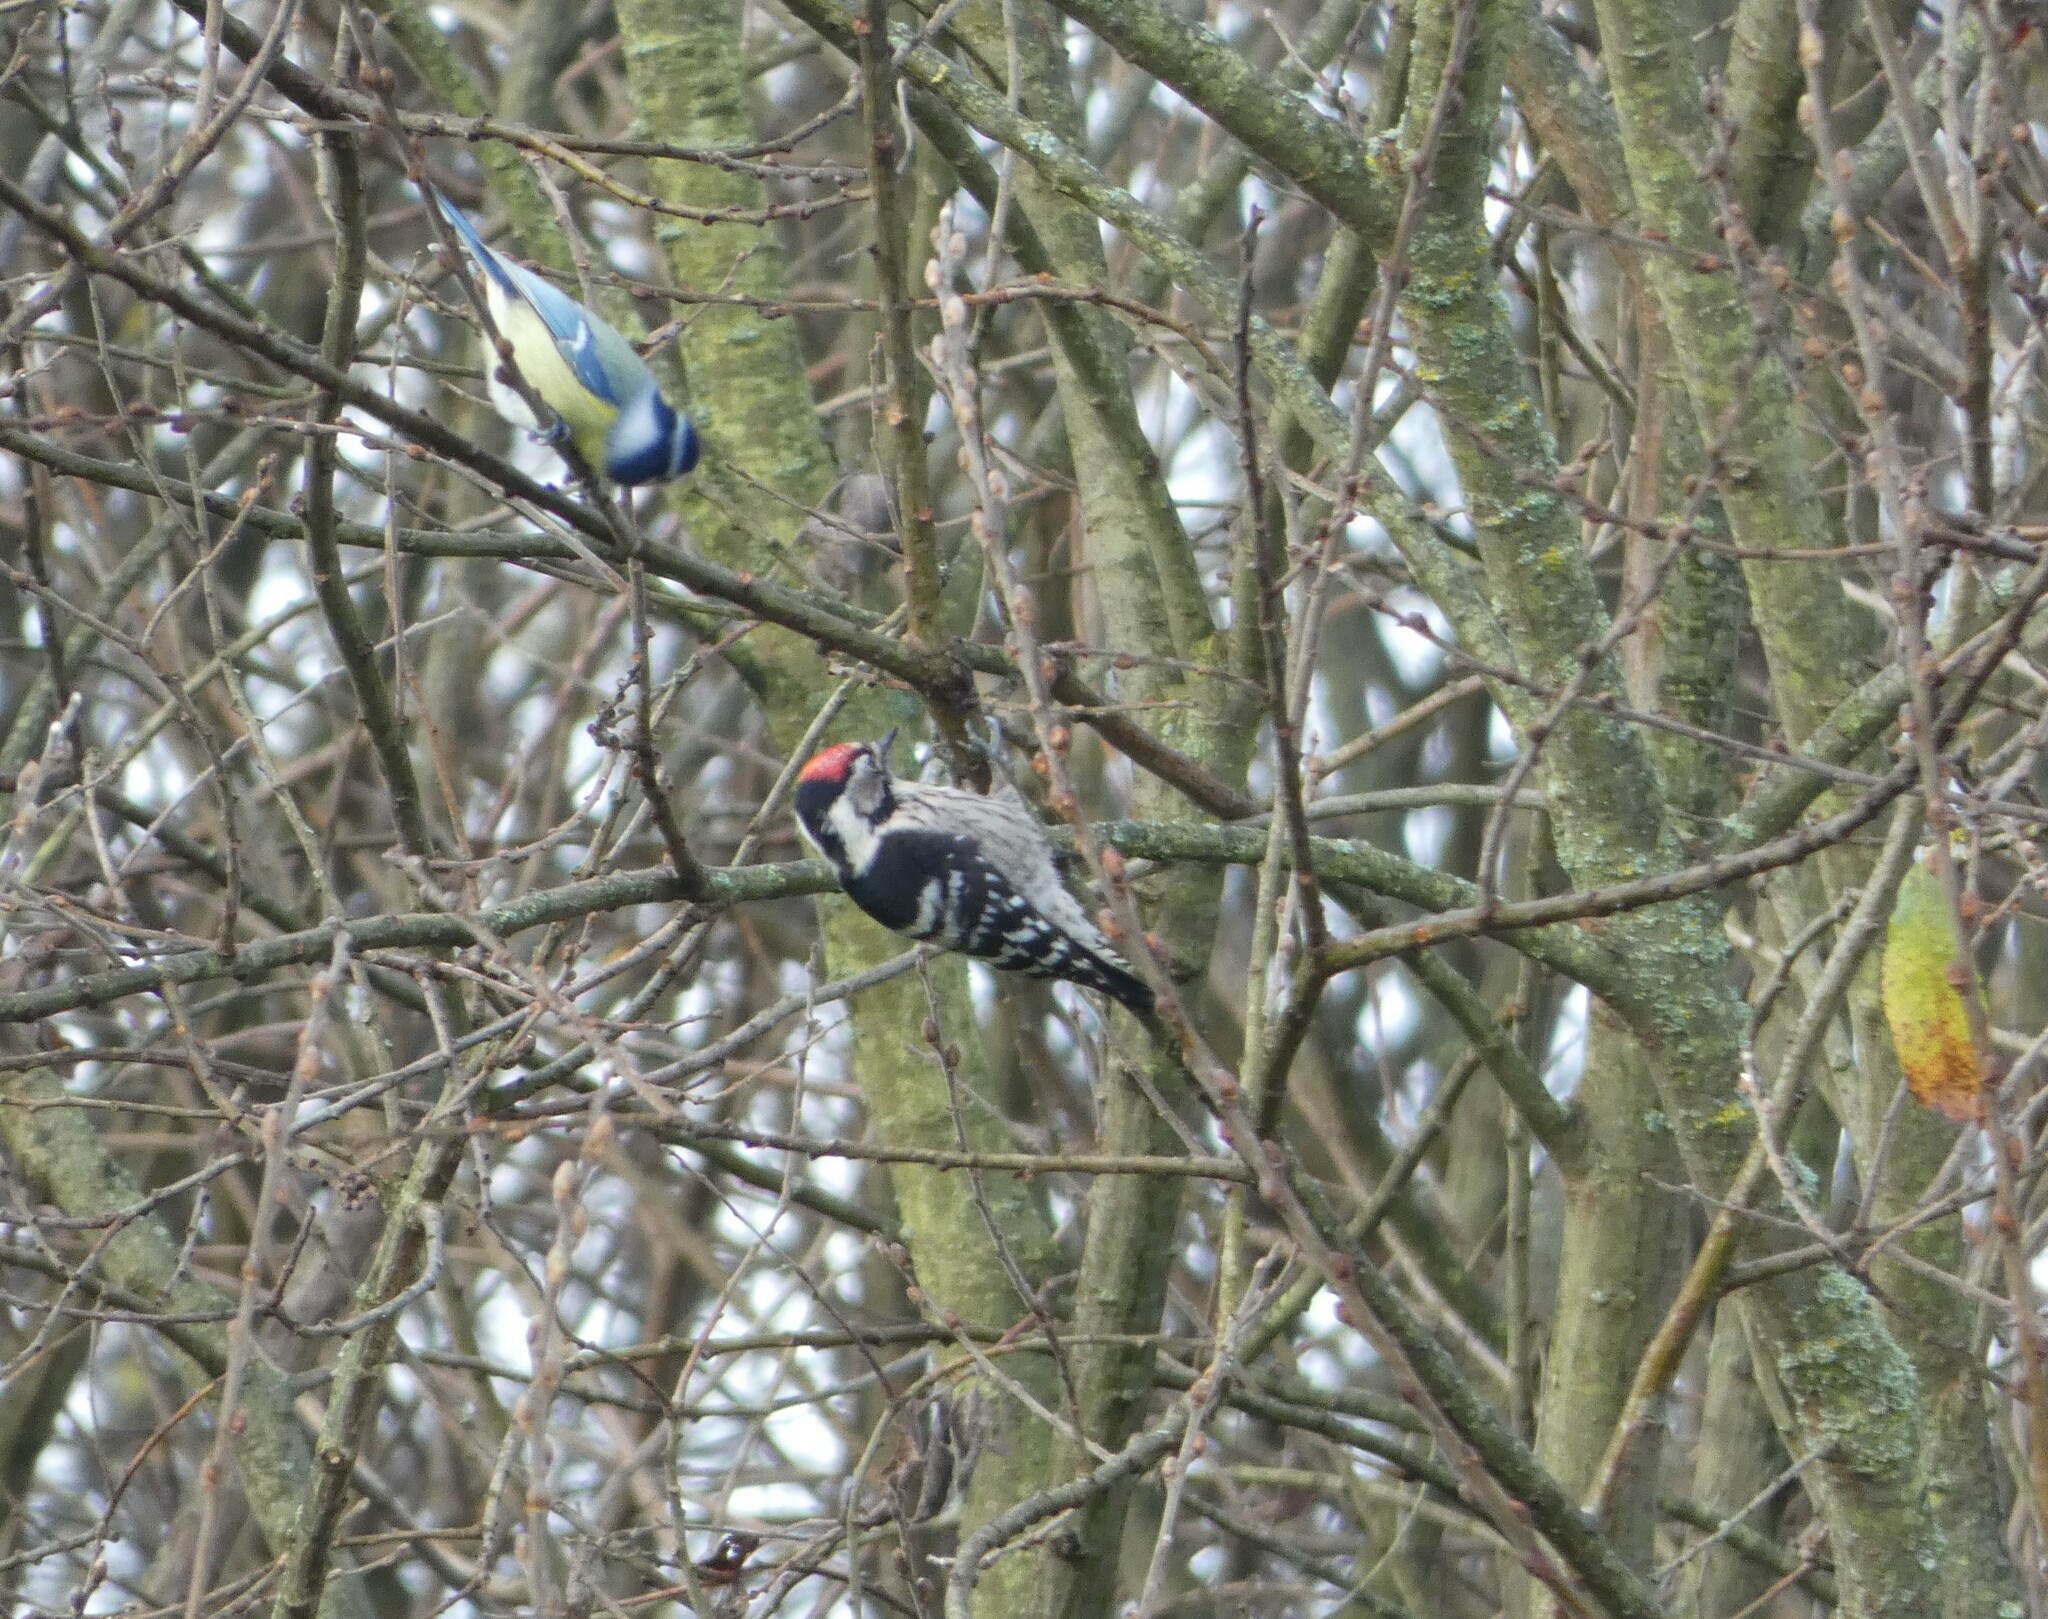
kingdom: Animalia
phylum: Chordata
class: Aves
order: Piciformes
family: Picidae
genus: Dryobates
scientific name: Dryobates minor
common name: Lesser spotted woodpecker
